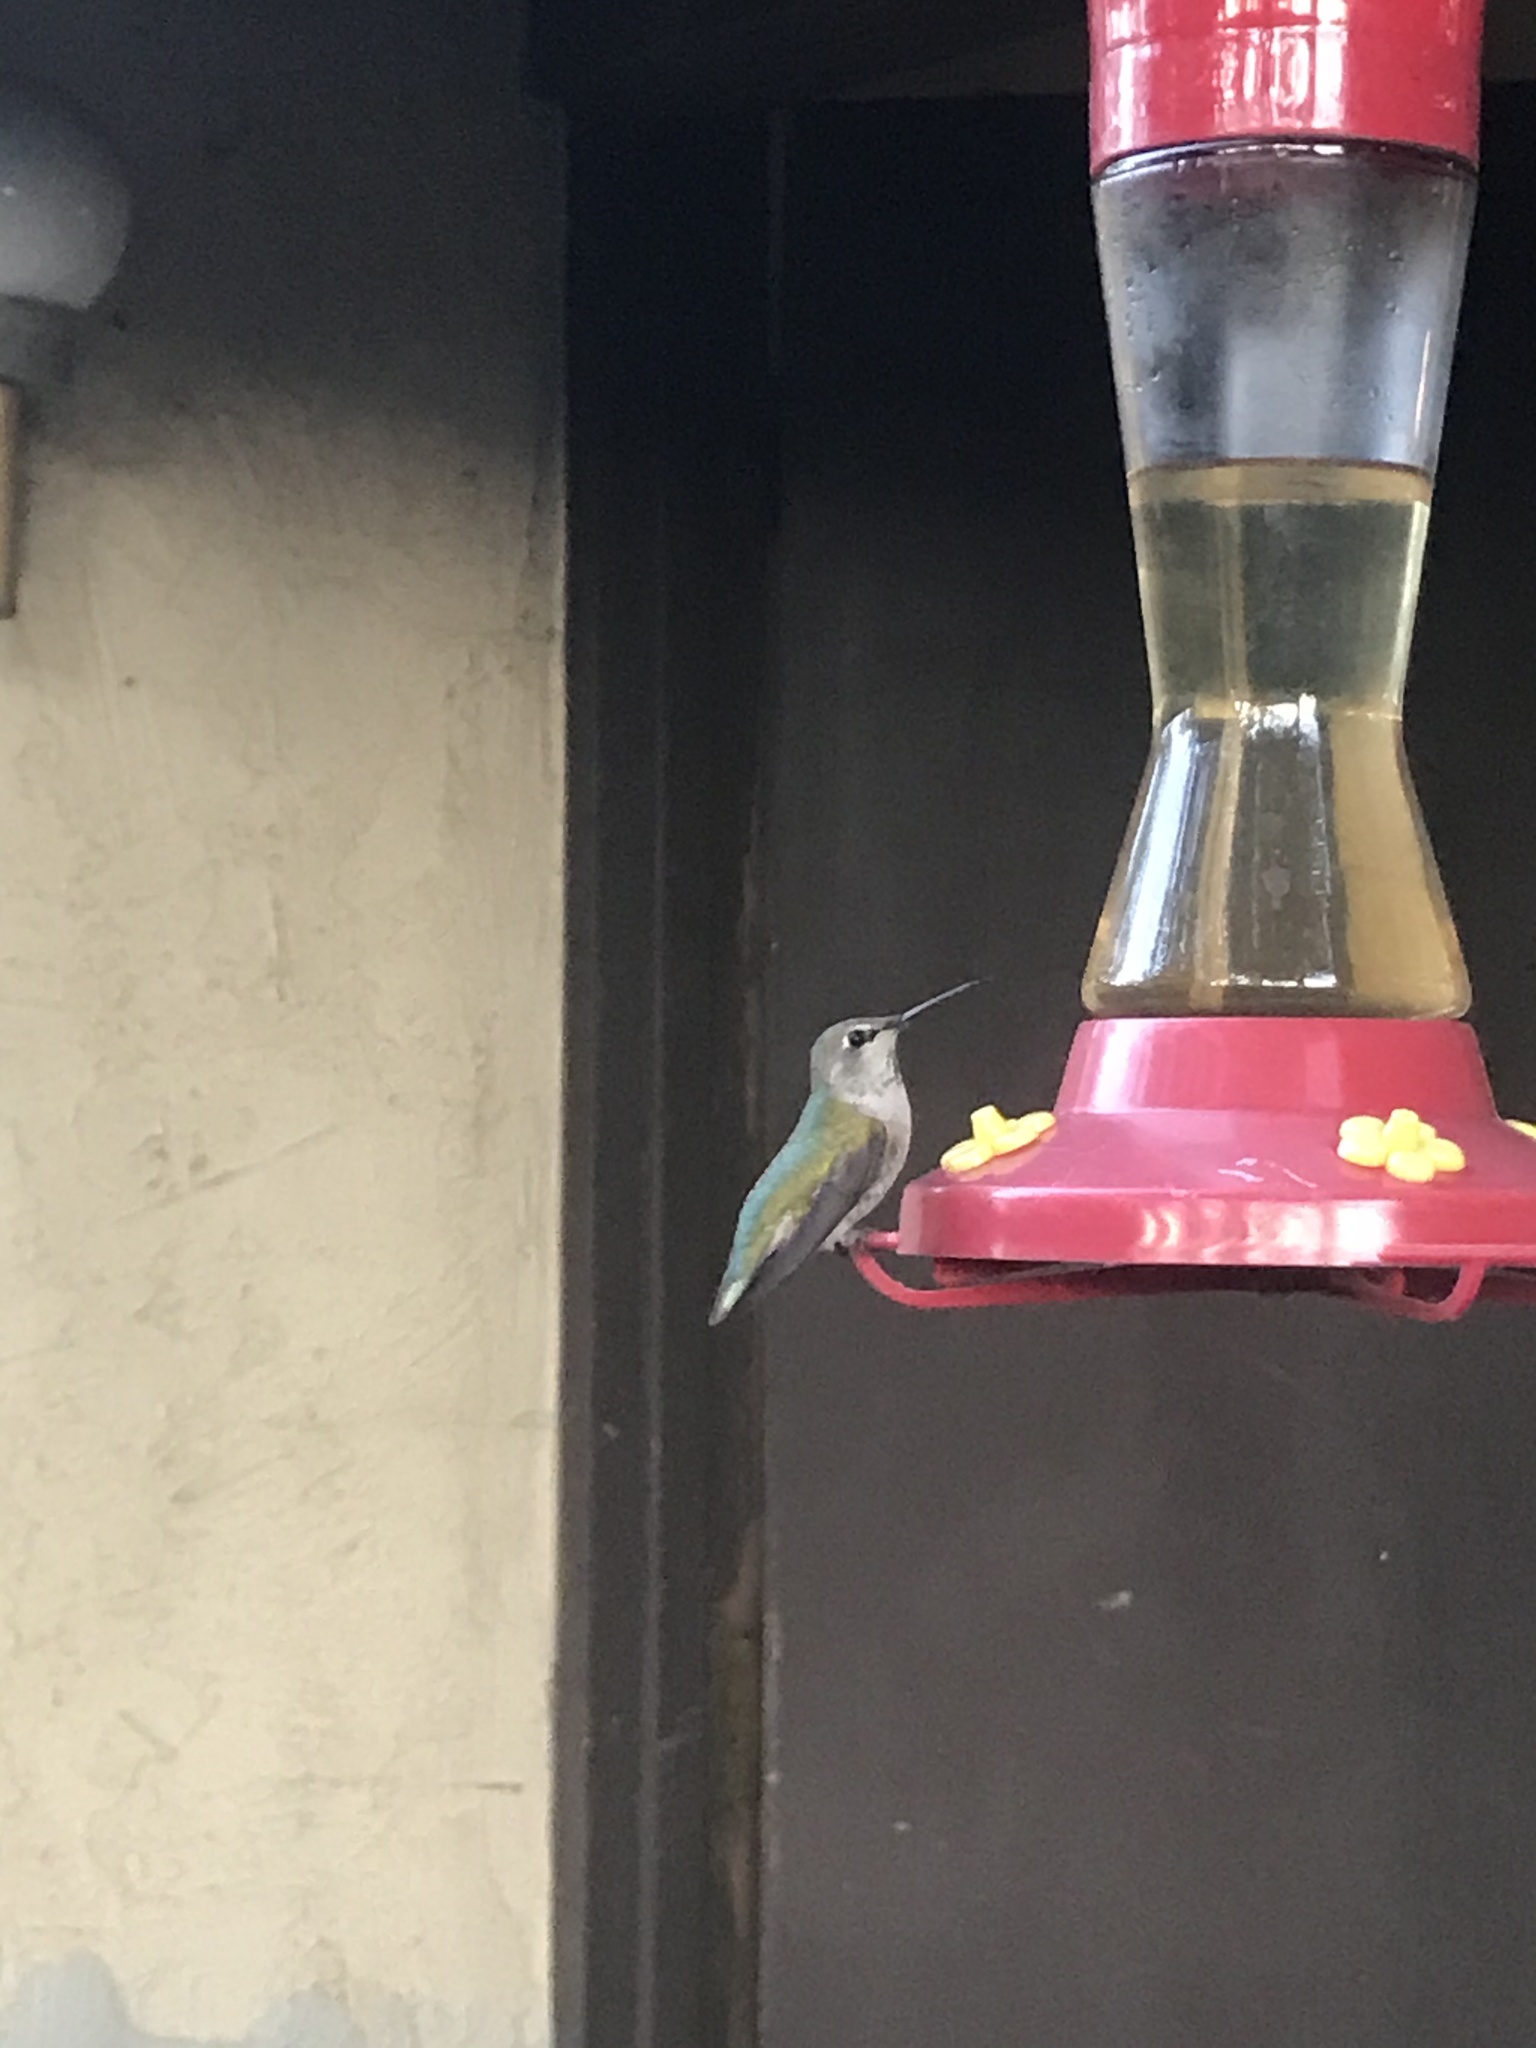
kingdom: Animalia
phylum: Chordata
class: Aves
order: Apodiformes
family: Trochilidae
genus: Calypte
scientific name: Calypte anna
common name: Anna's hummingbird
